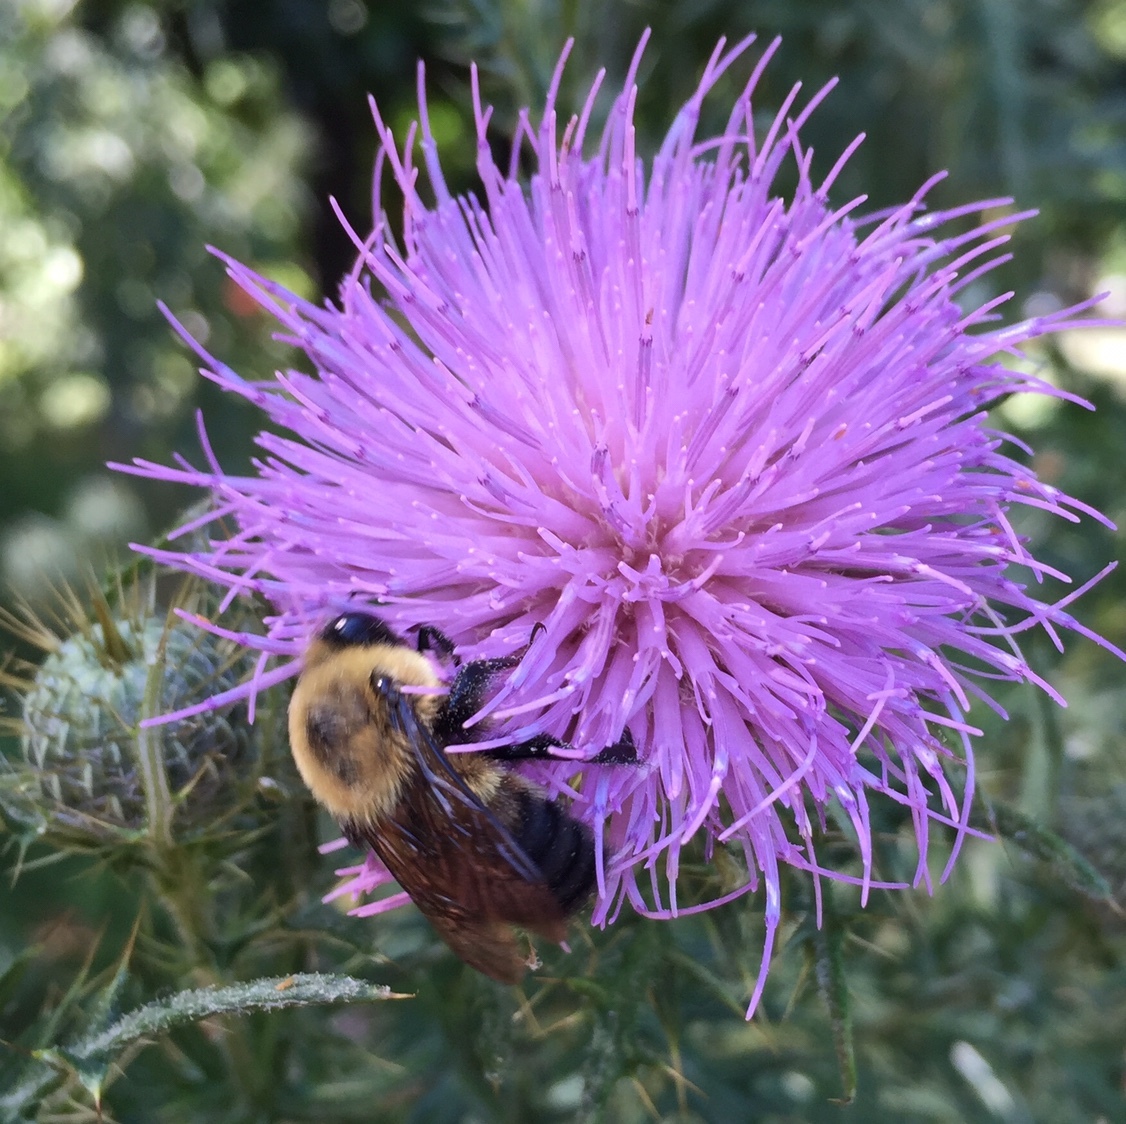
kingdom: Animalia
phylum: Arthropoda
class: Insecta
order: Hymenoptera
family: Apidae
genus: Bombus
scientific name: Bombus griseocollis
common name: Brown-belted bumble bee
